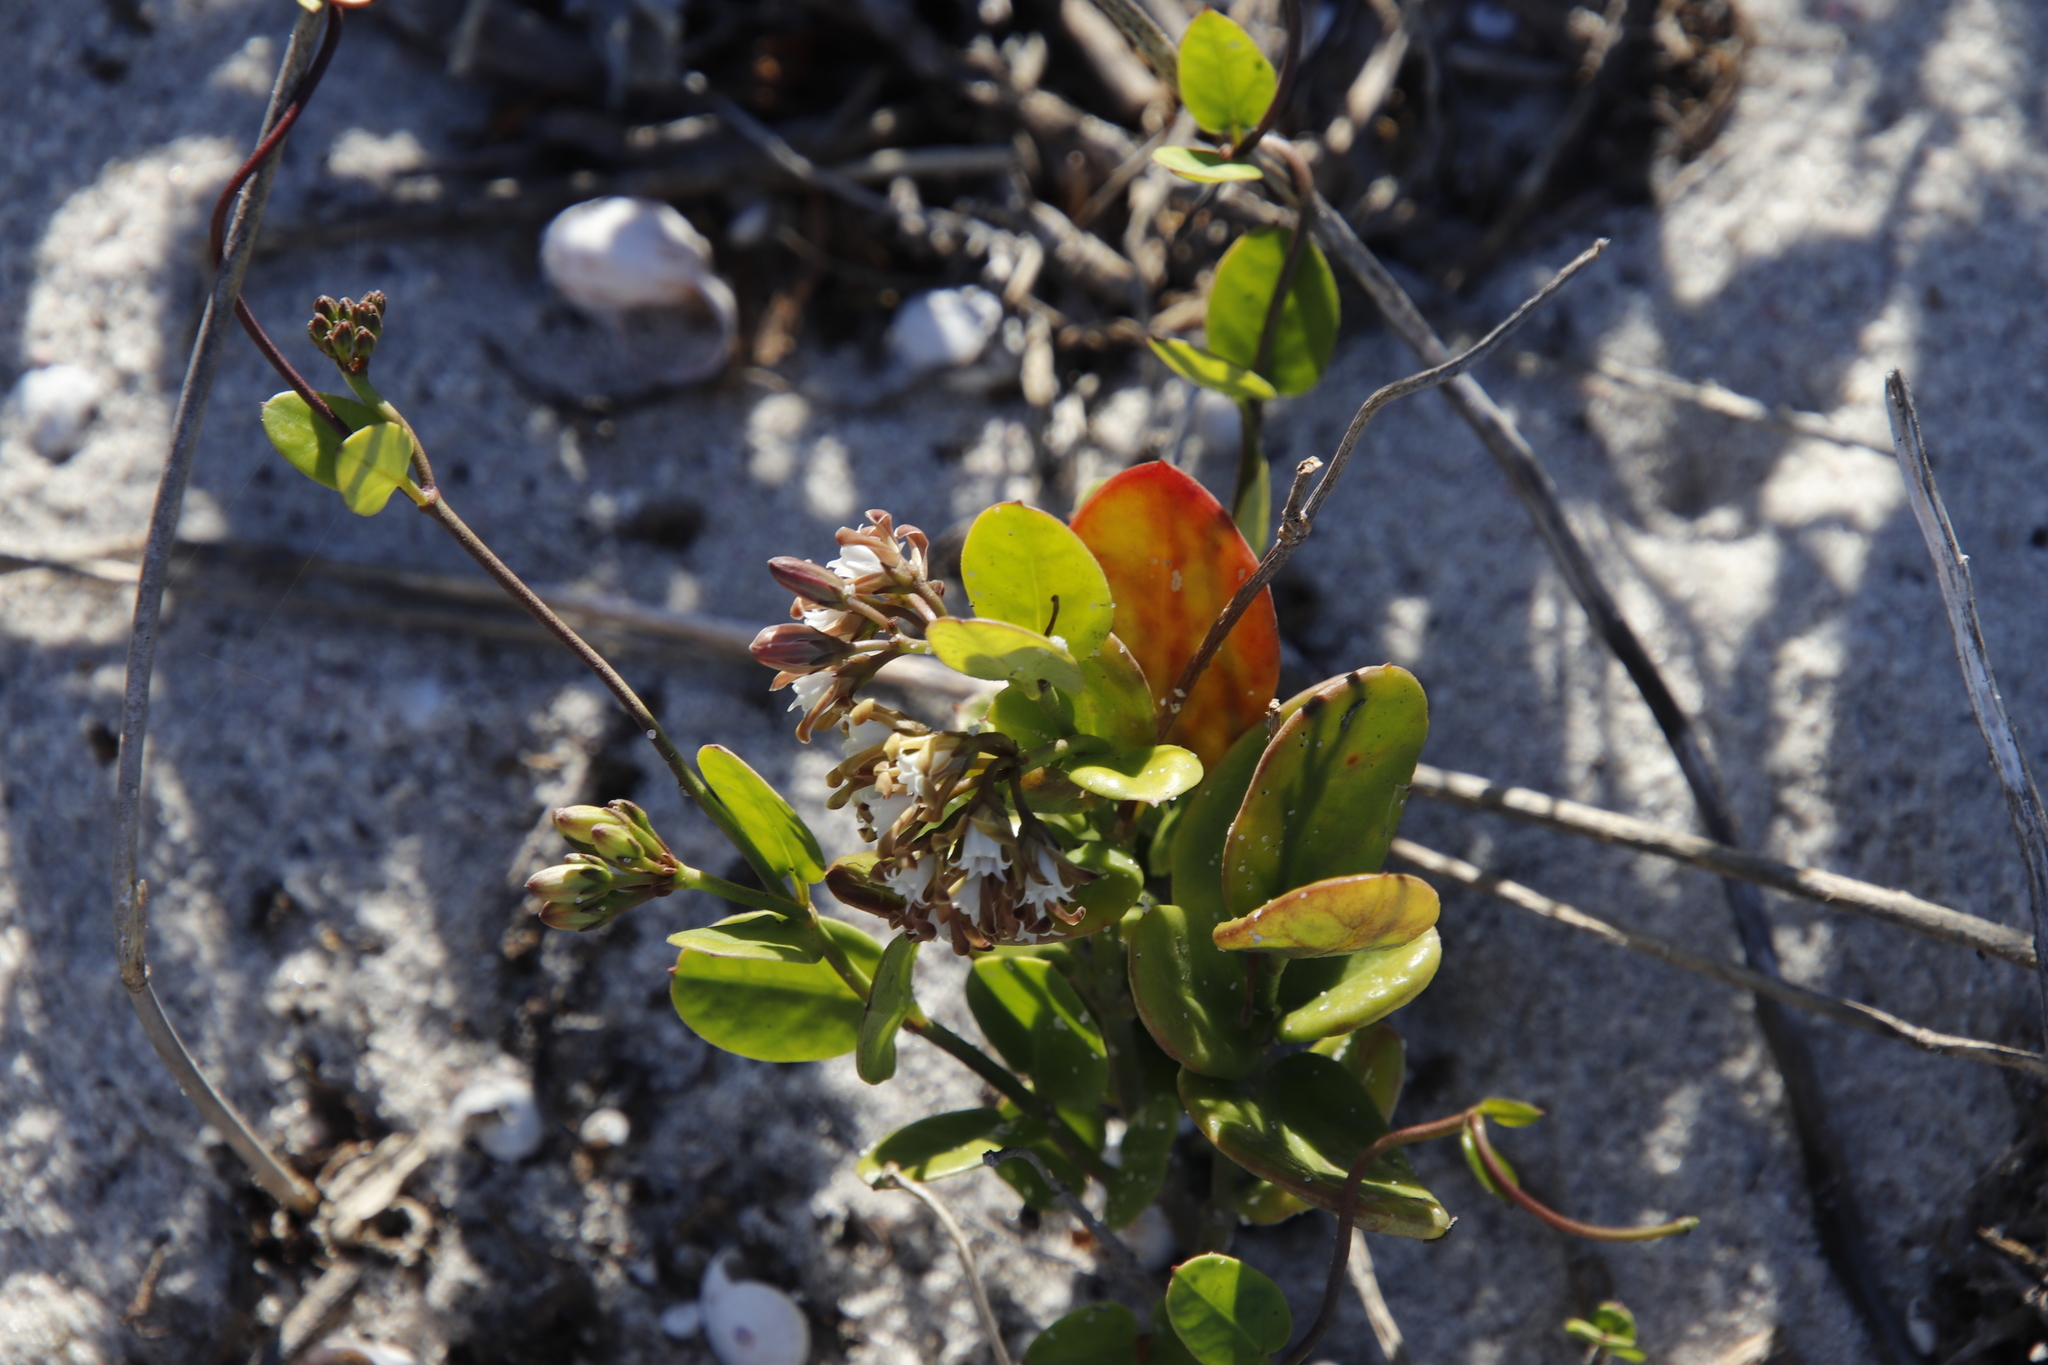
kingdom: Plantae
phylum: Tracheophyta
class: Magnoliopsida
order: Gentianales
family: Apocynaceae
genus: Cynanchum
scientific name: Cynanchum africanum
